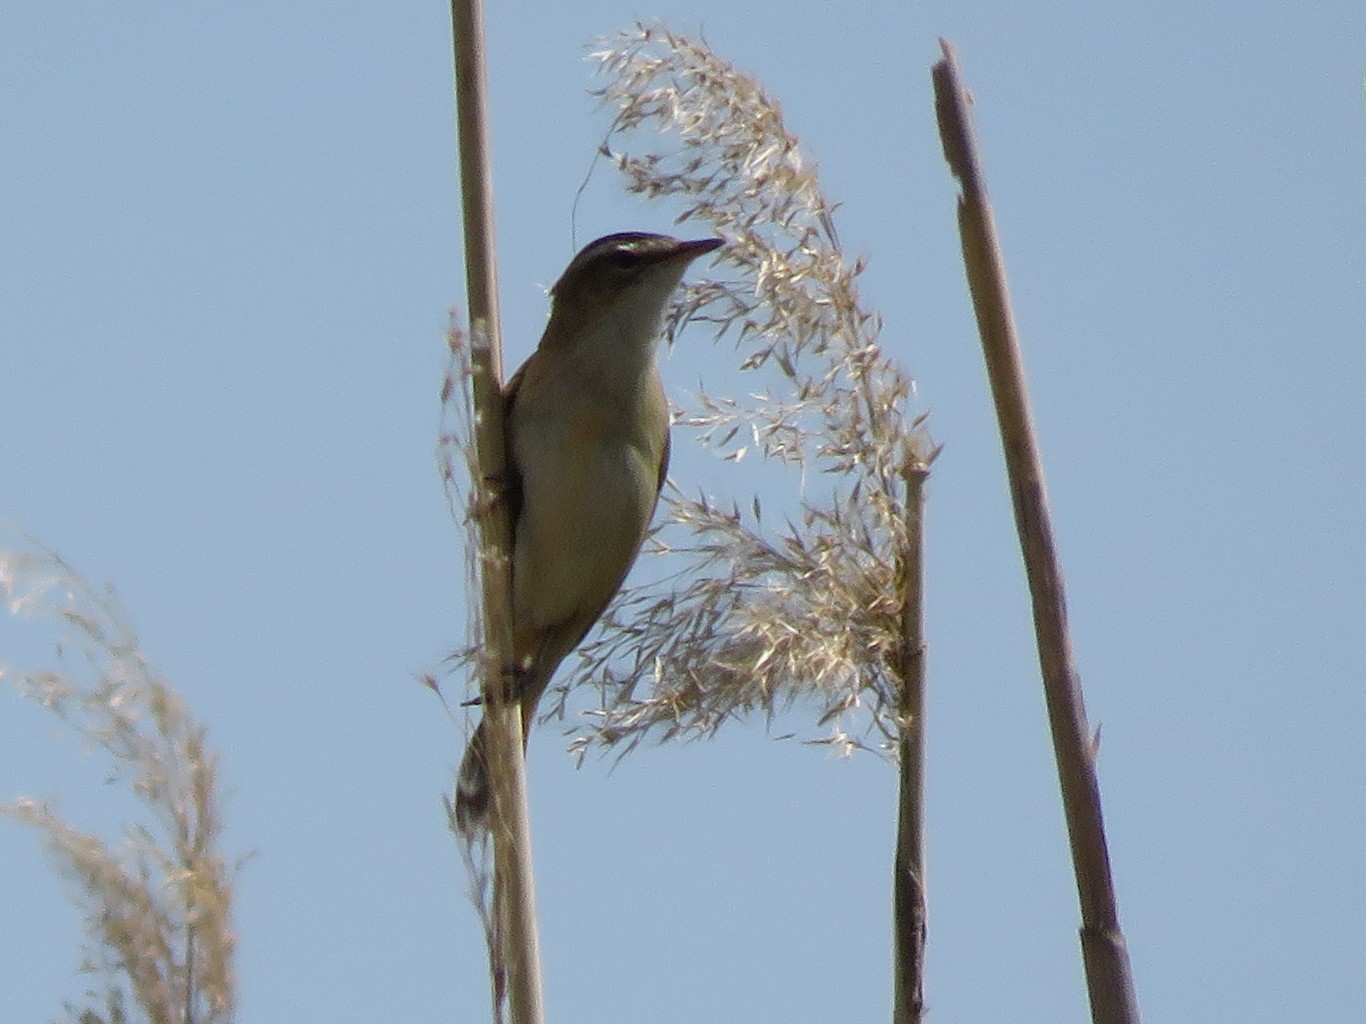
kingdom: Animalia
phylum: Chordata
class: Aves
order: Passeriformes
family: Acrocephalidae
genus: Acrocephalus
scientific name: Acrocephalus schoenobaenus
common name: Sedge warbler
